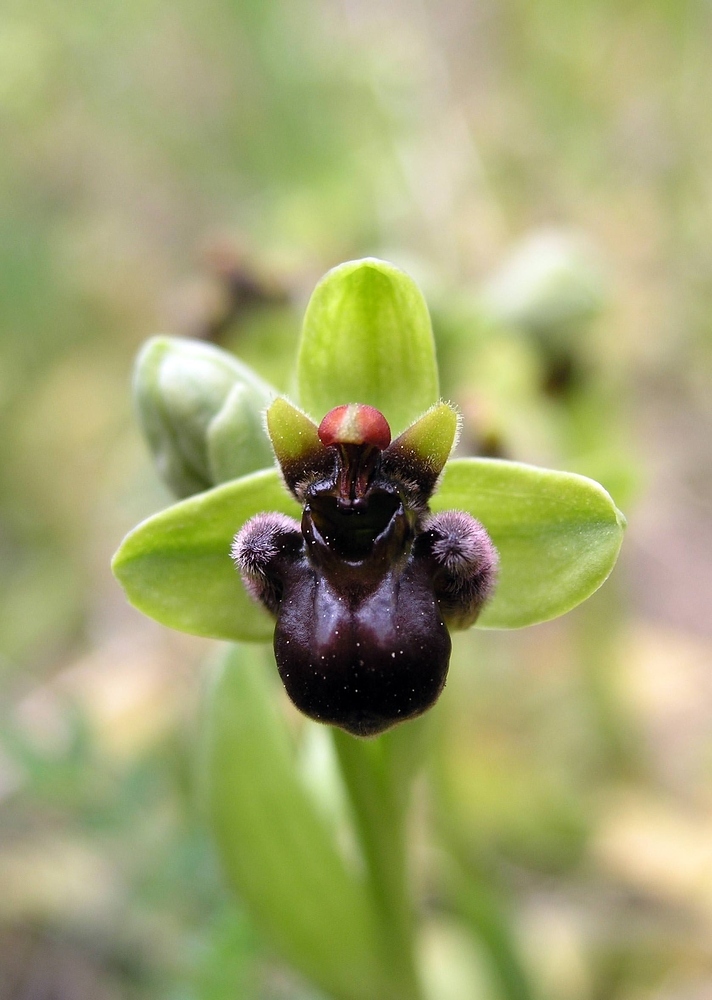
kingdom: Plantae
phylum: Tracheophyta
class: Liliopsida
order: Asparagales
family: Orchidaceae
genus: Ophrys
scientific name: Ophrys bombyliflora
